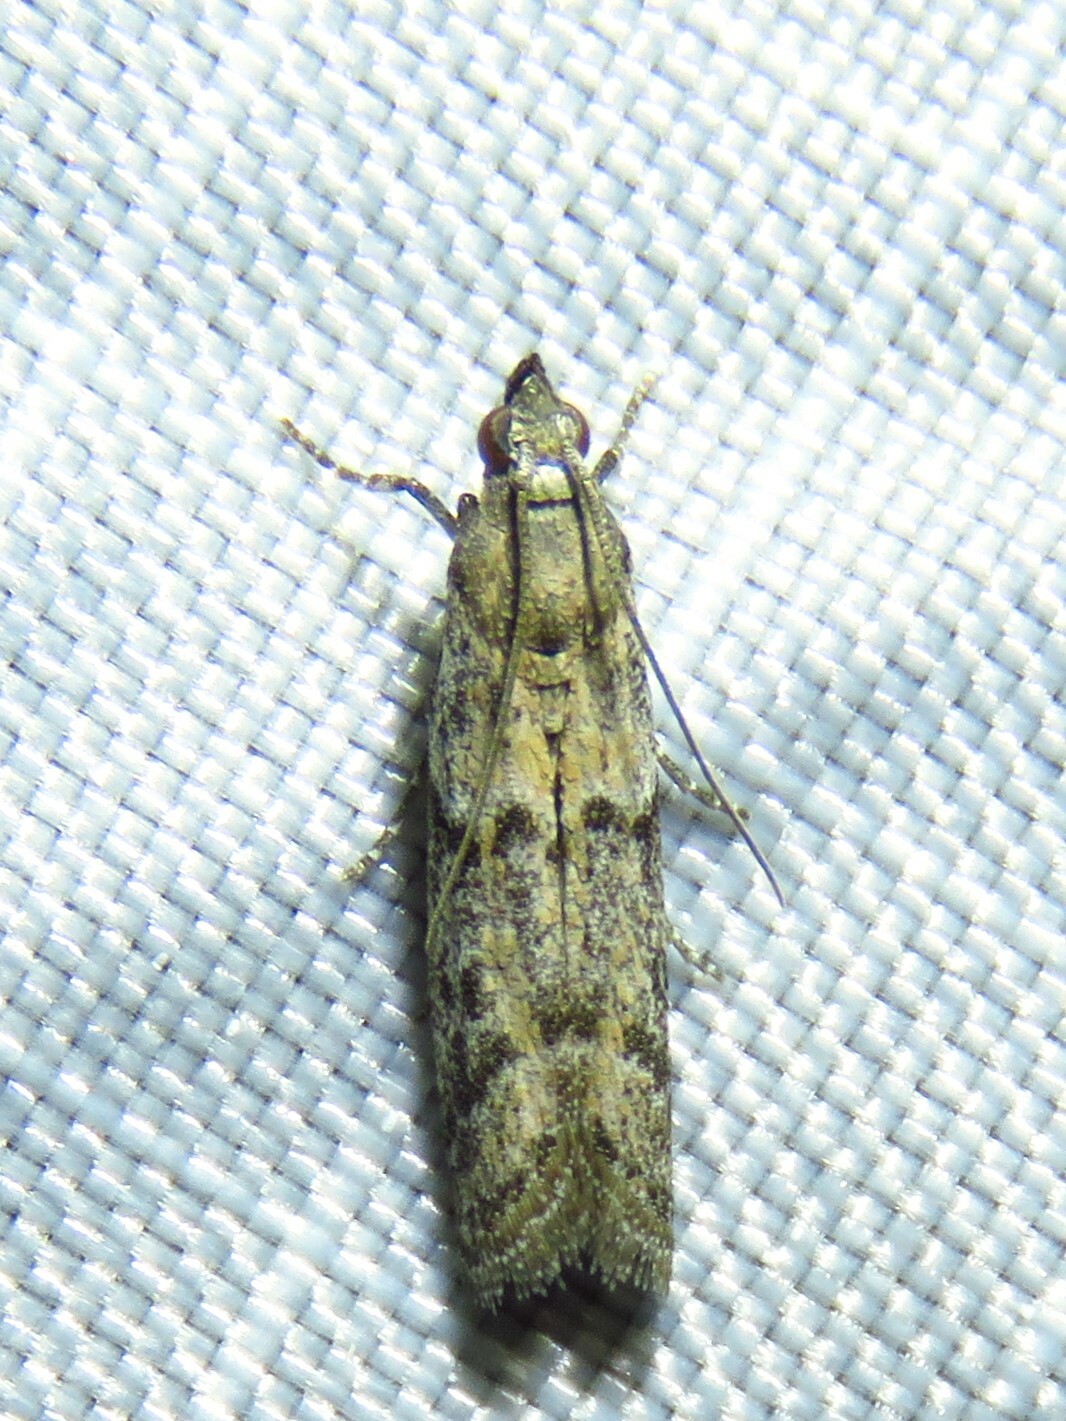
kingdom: Animalia
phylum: Arthropoda
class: Insecta
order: Lepidoptera
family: Pyralidae
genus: Ephestiodes
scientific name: Ephestiodes gilvescentella
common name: Moth
